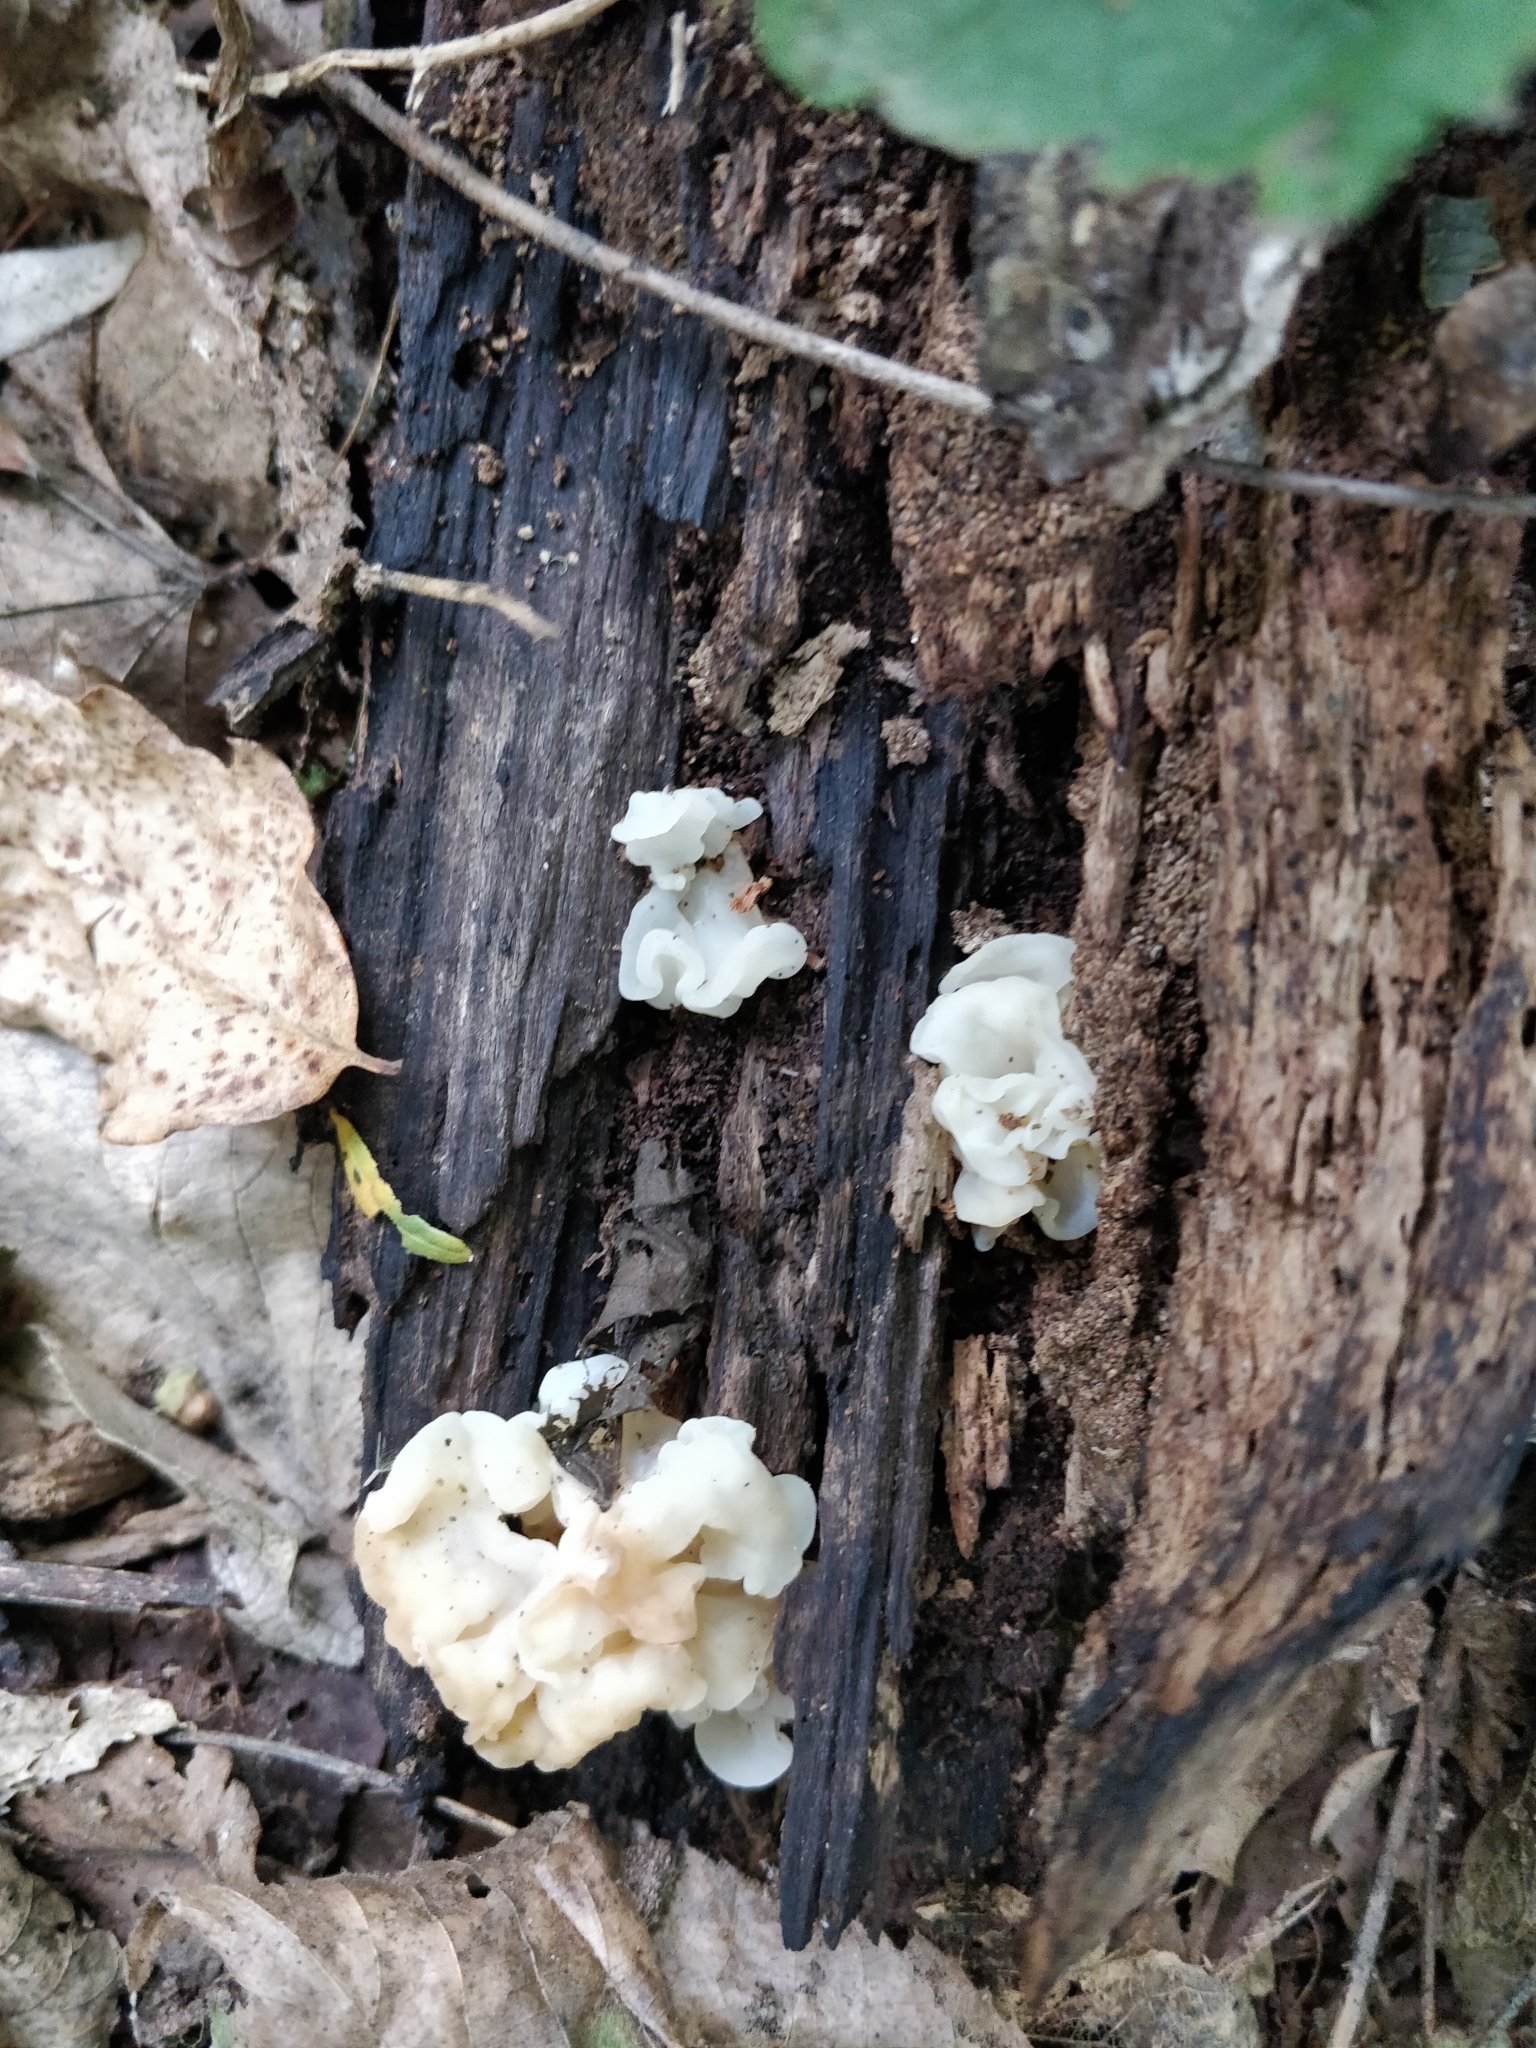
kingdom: Fungi
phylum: Basidiomycota
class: Agaricomycetes
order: Auriculariales
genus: Ductifera
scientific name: Ductifera pululahuana
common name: White jelly fungus
